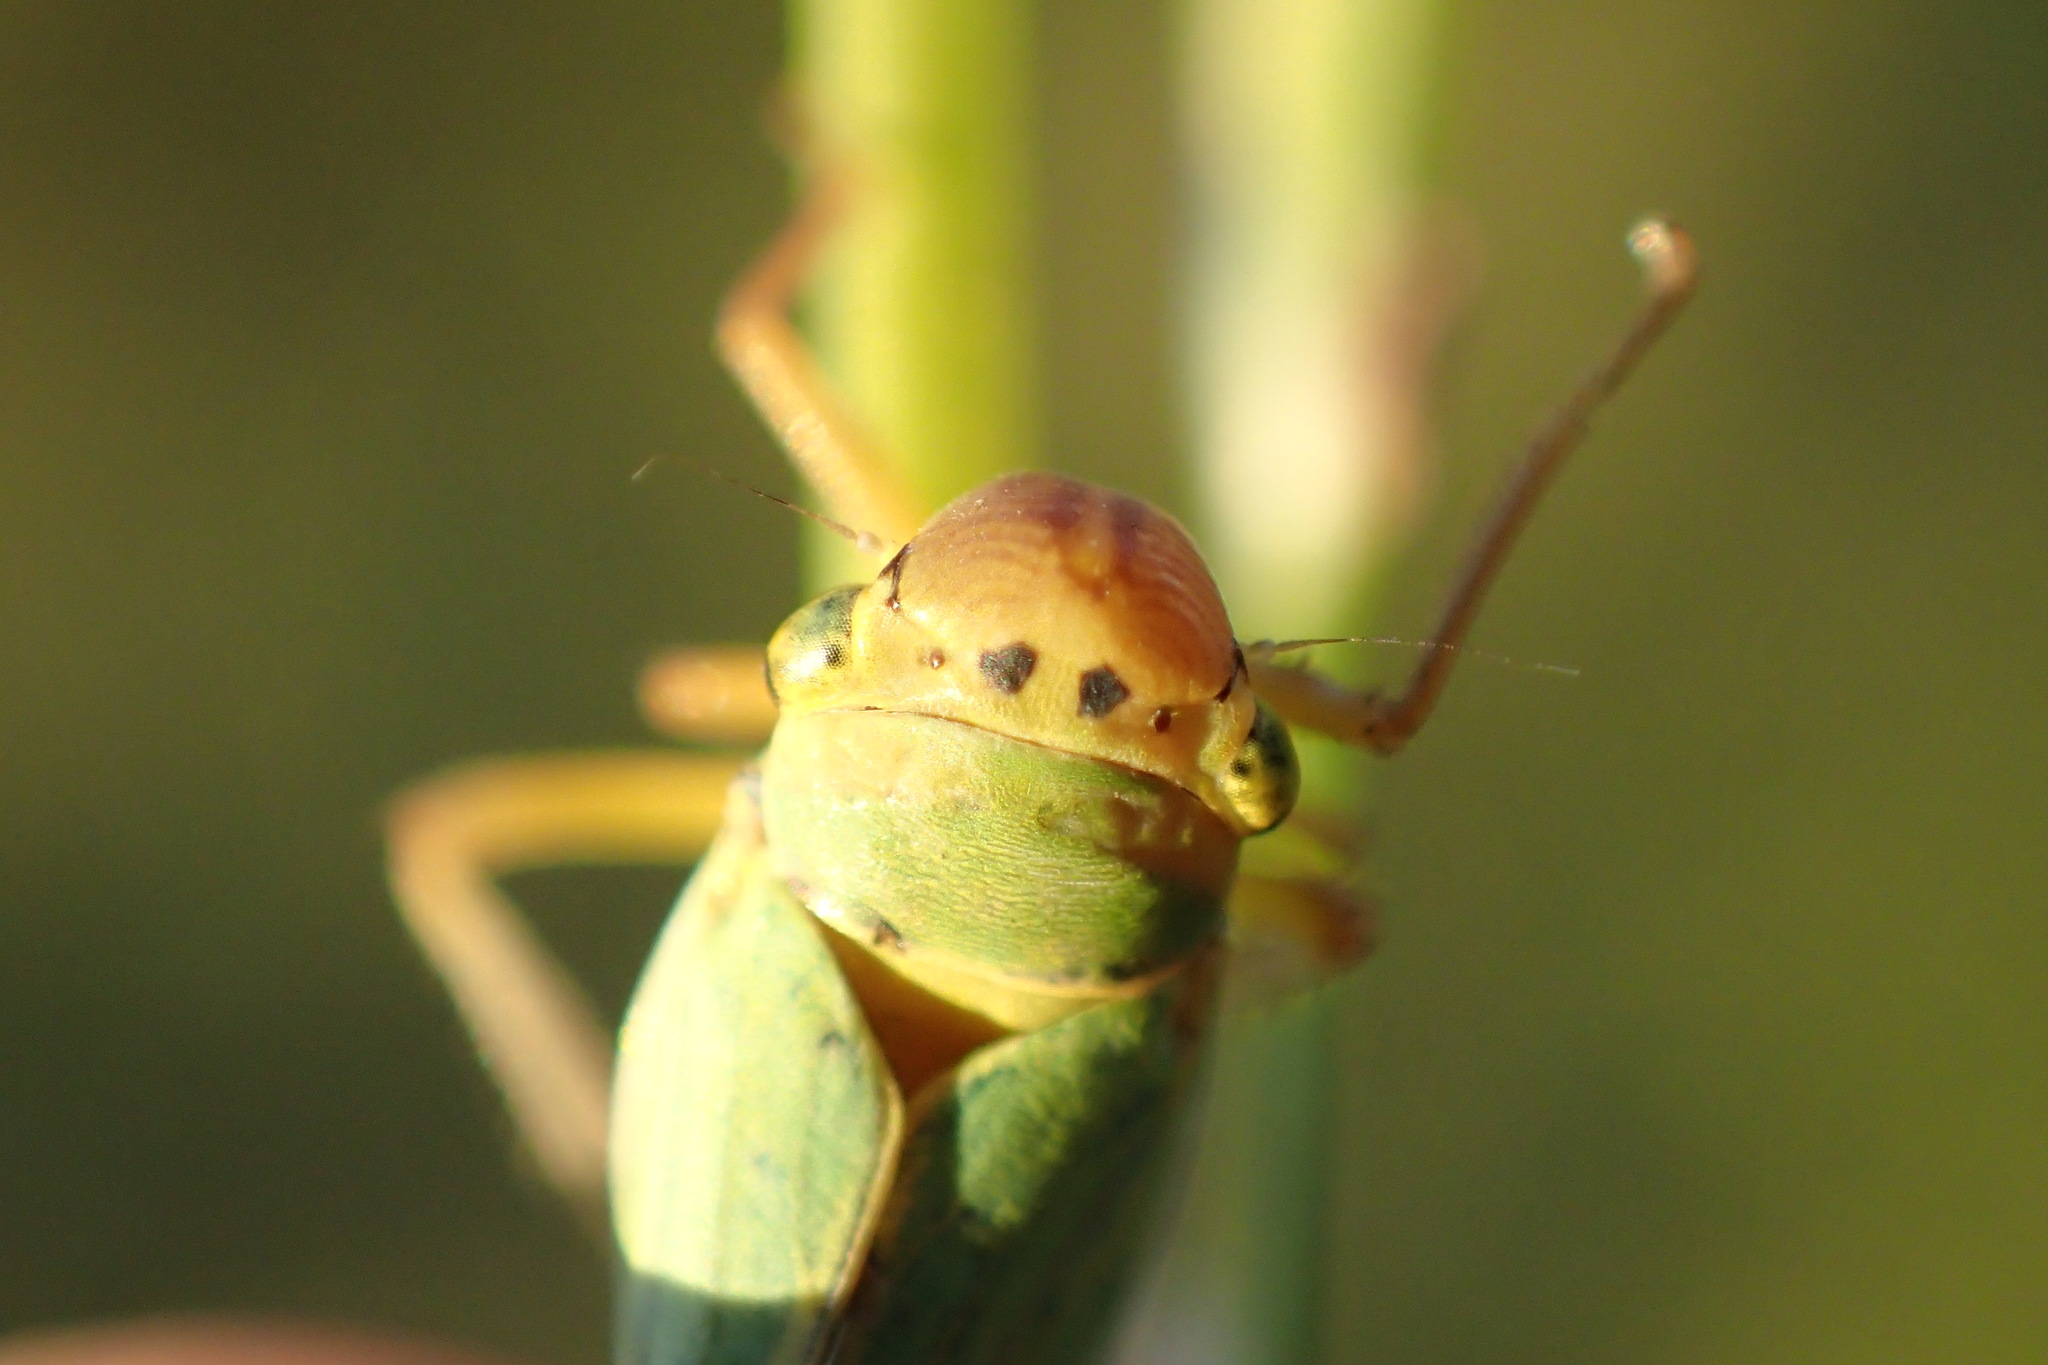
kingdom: Animalia
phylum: Arthropoda
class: Insecta
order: Hemiptera
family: Cicadellidae
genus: Cicadella
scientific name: Cicadella viridis
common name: Leafhopper
